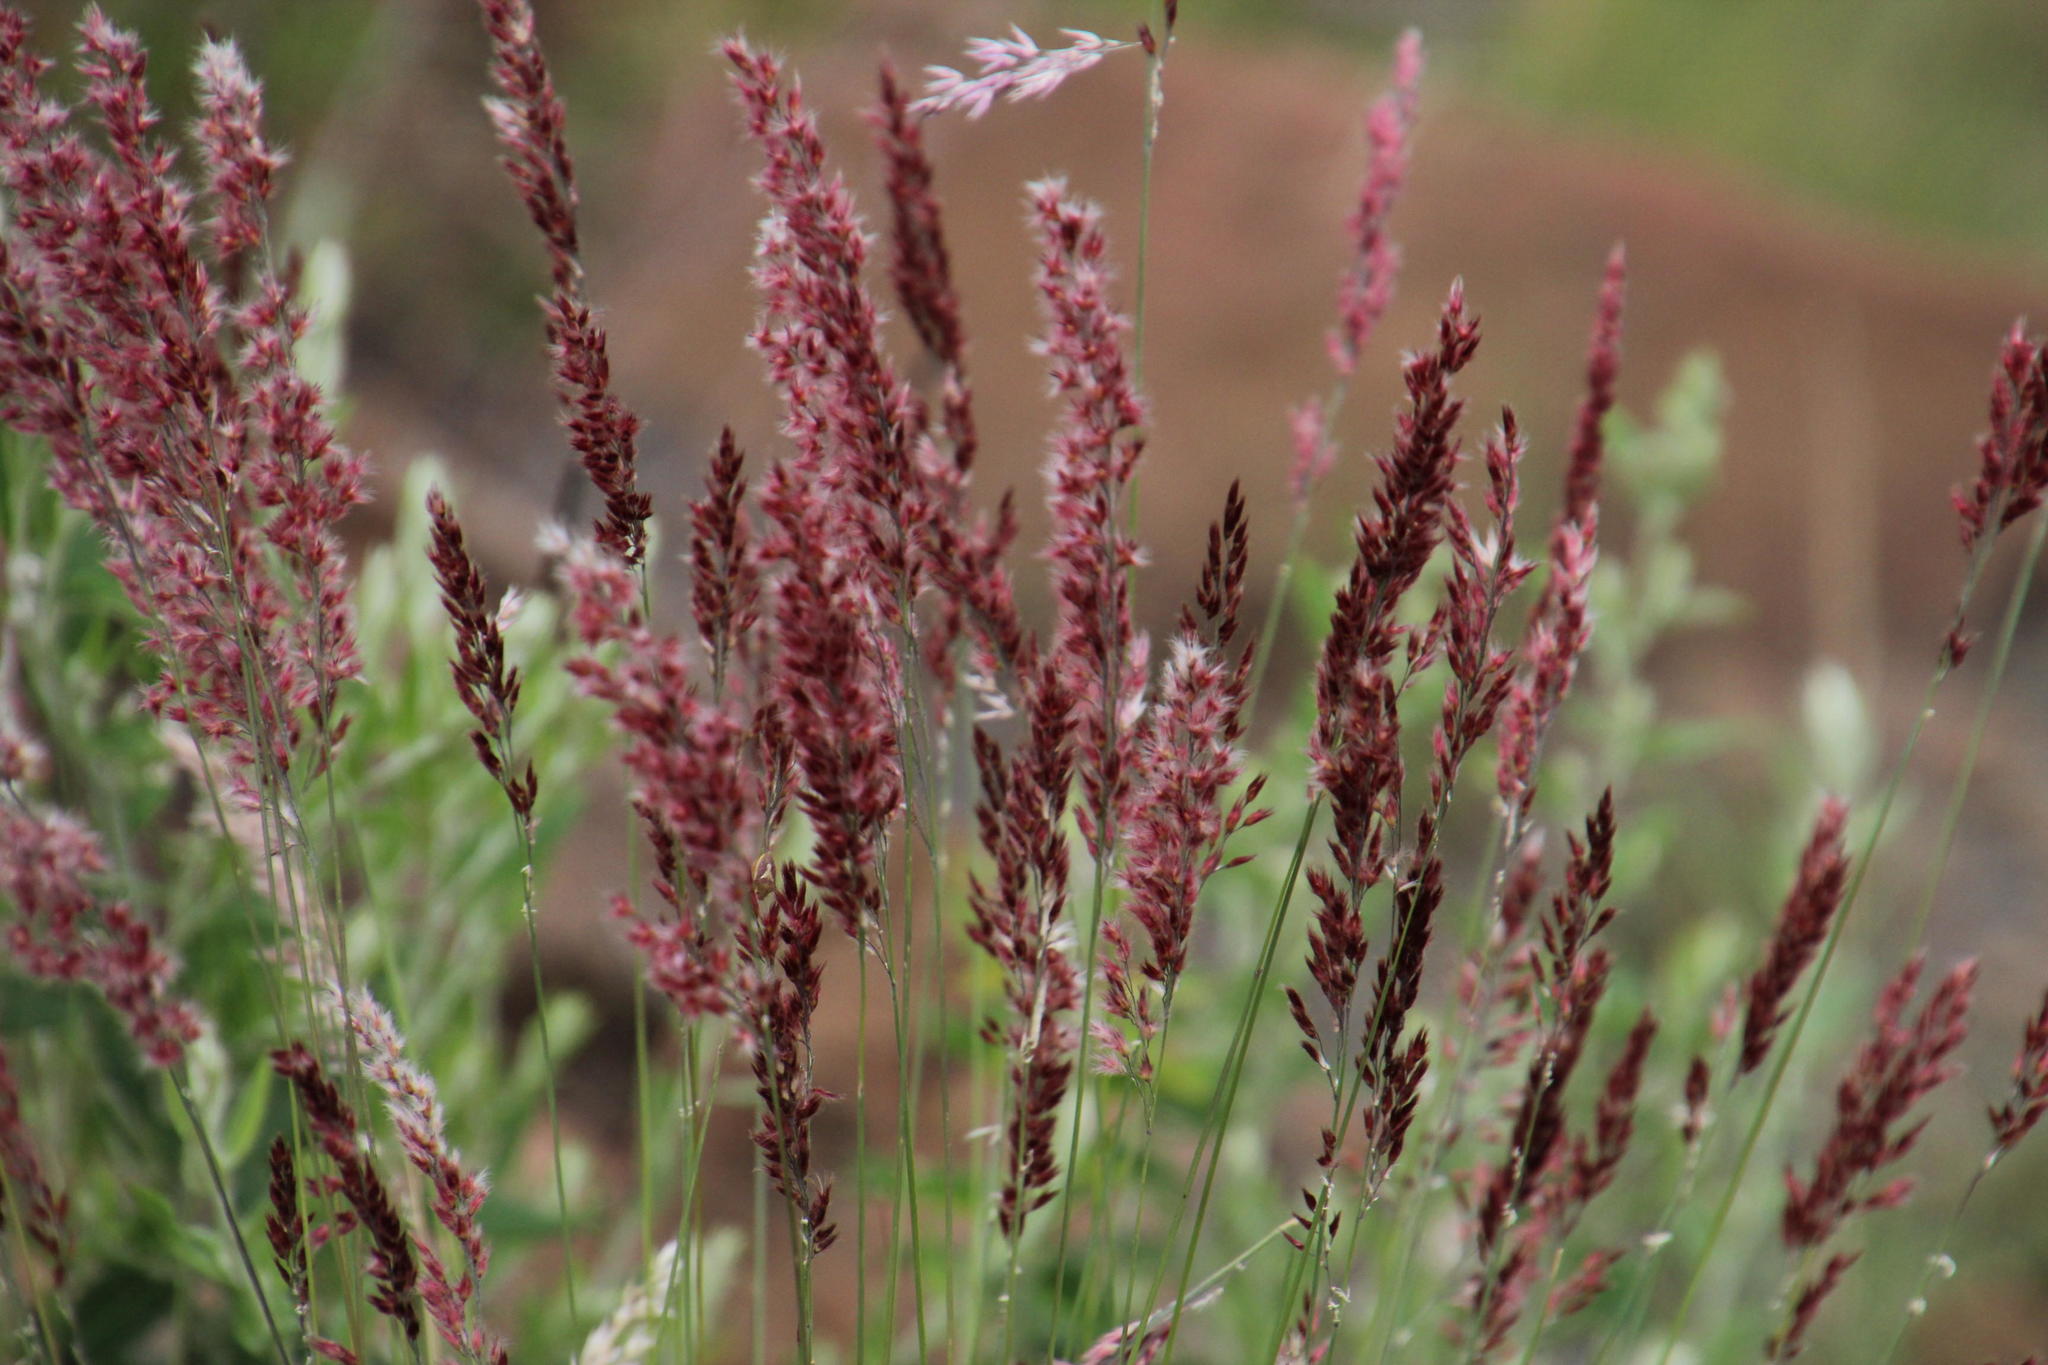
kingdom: Plantae
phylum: Tracheophyta
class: Liliopsida
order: Poales
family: Poaceae
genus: Melinis
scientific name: Melinis nerviglumis
